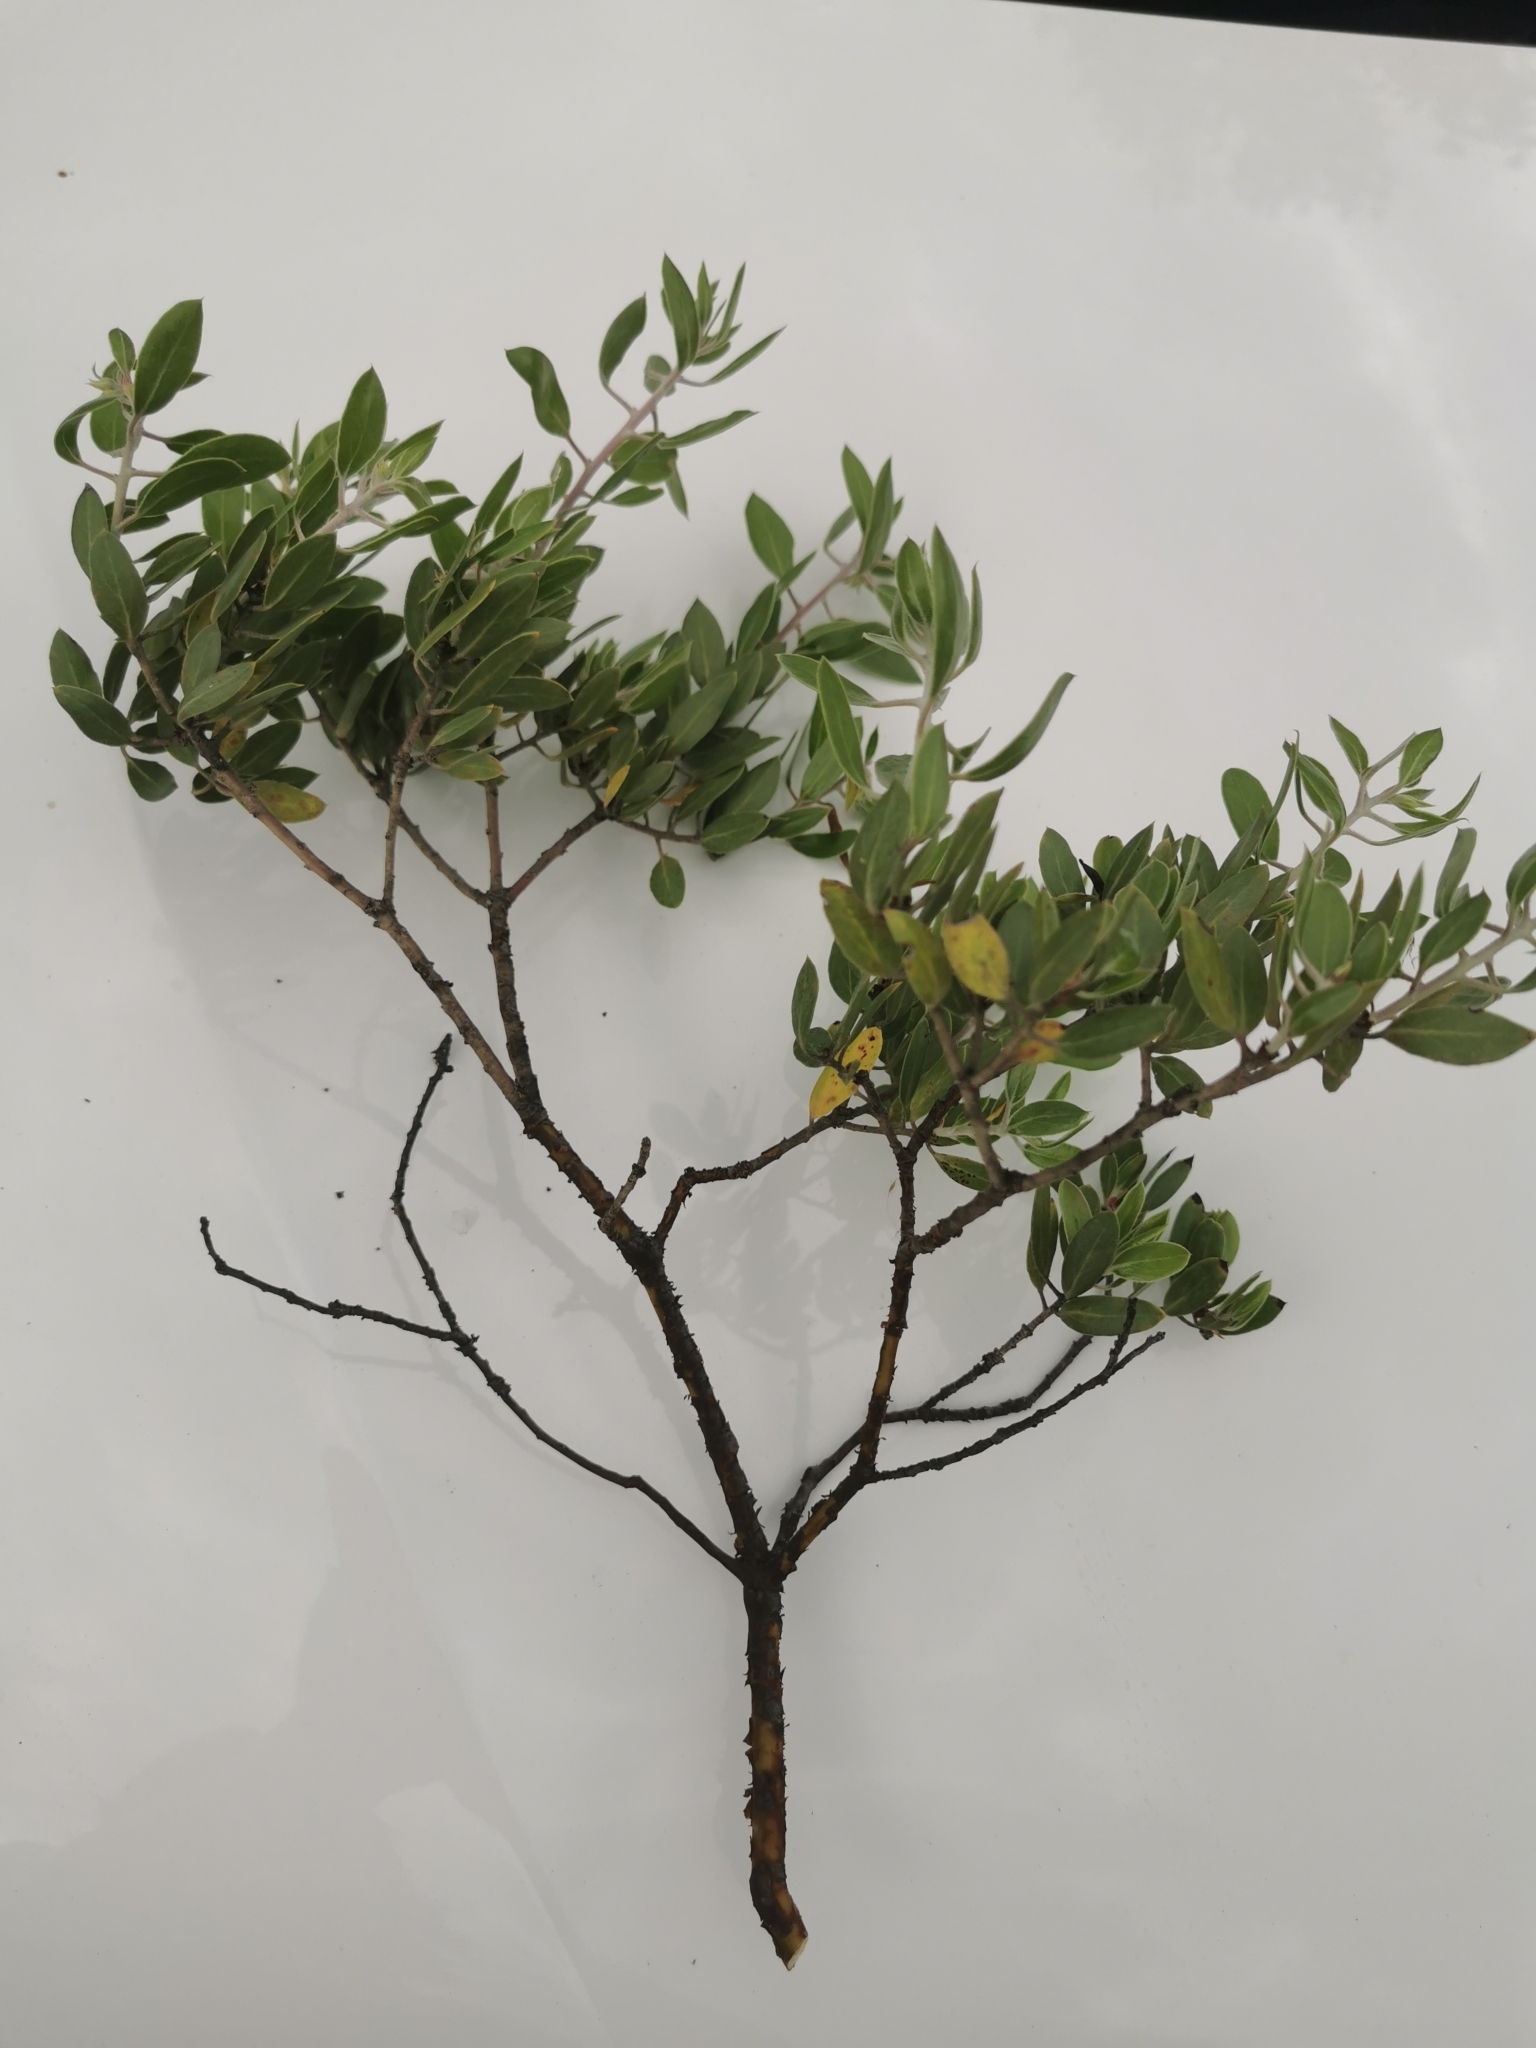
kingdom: Plantae
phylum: Tracheophyta
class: Magnoliopsida
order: Ericales
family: Ericaceae
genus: Arctostaphylos
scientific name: Arctostaphylos pungens
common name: Mexican manzanita
